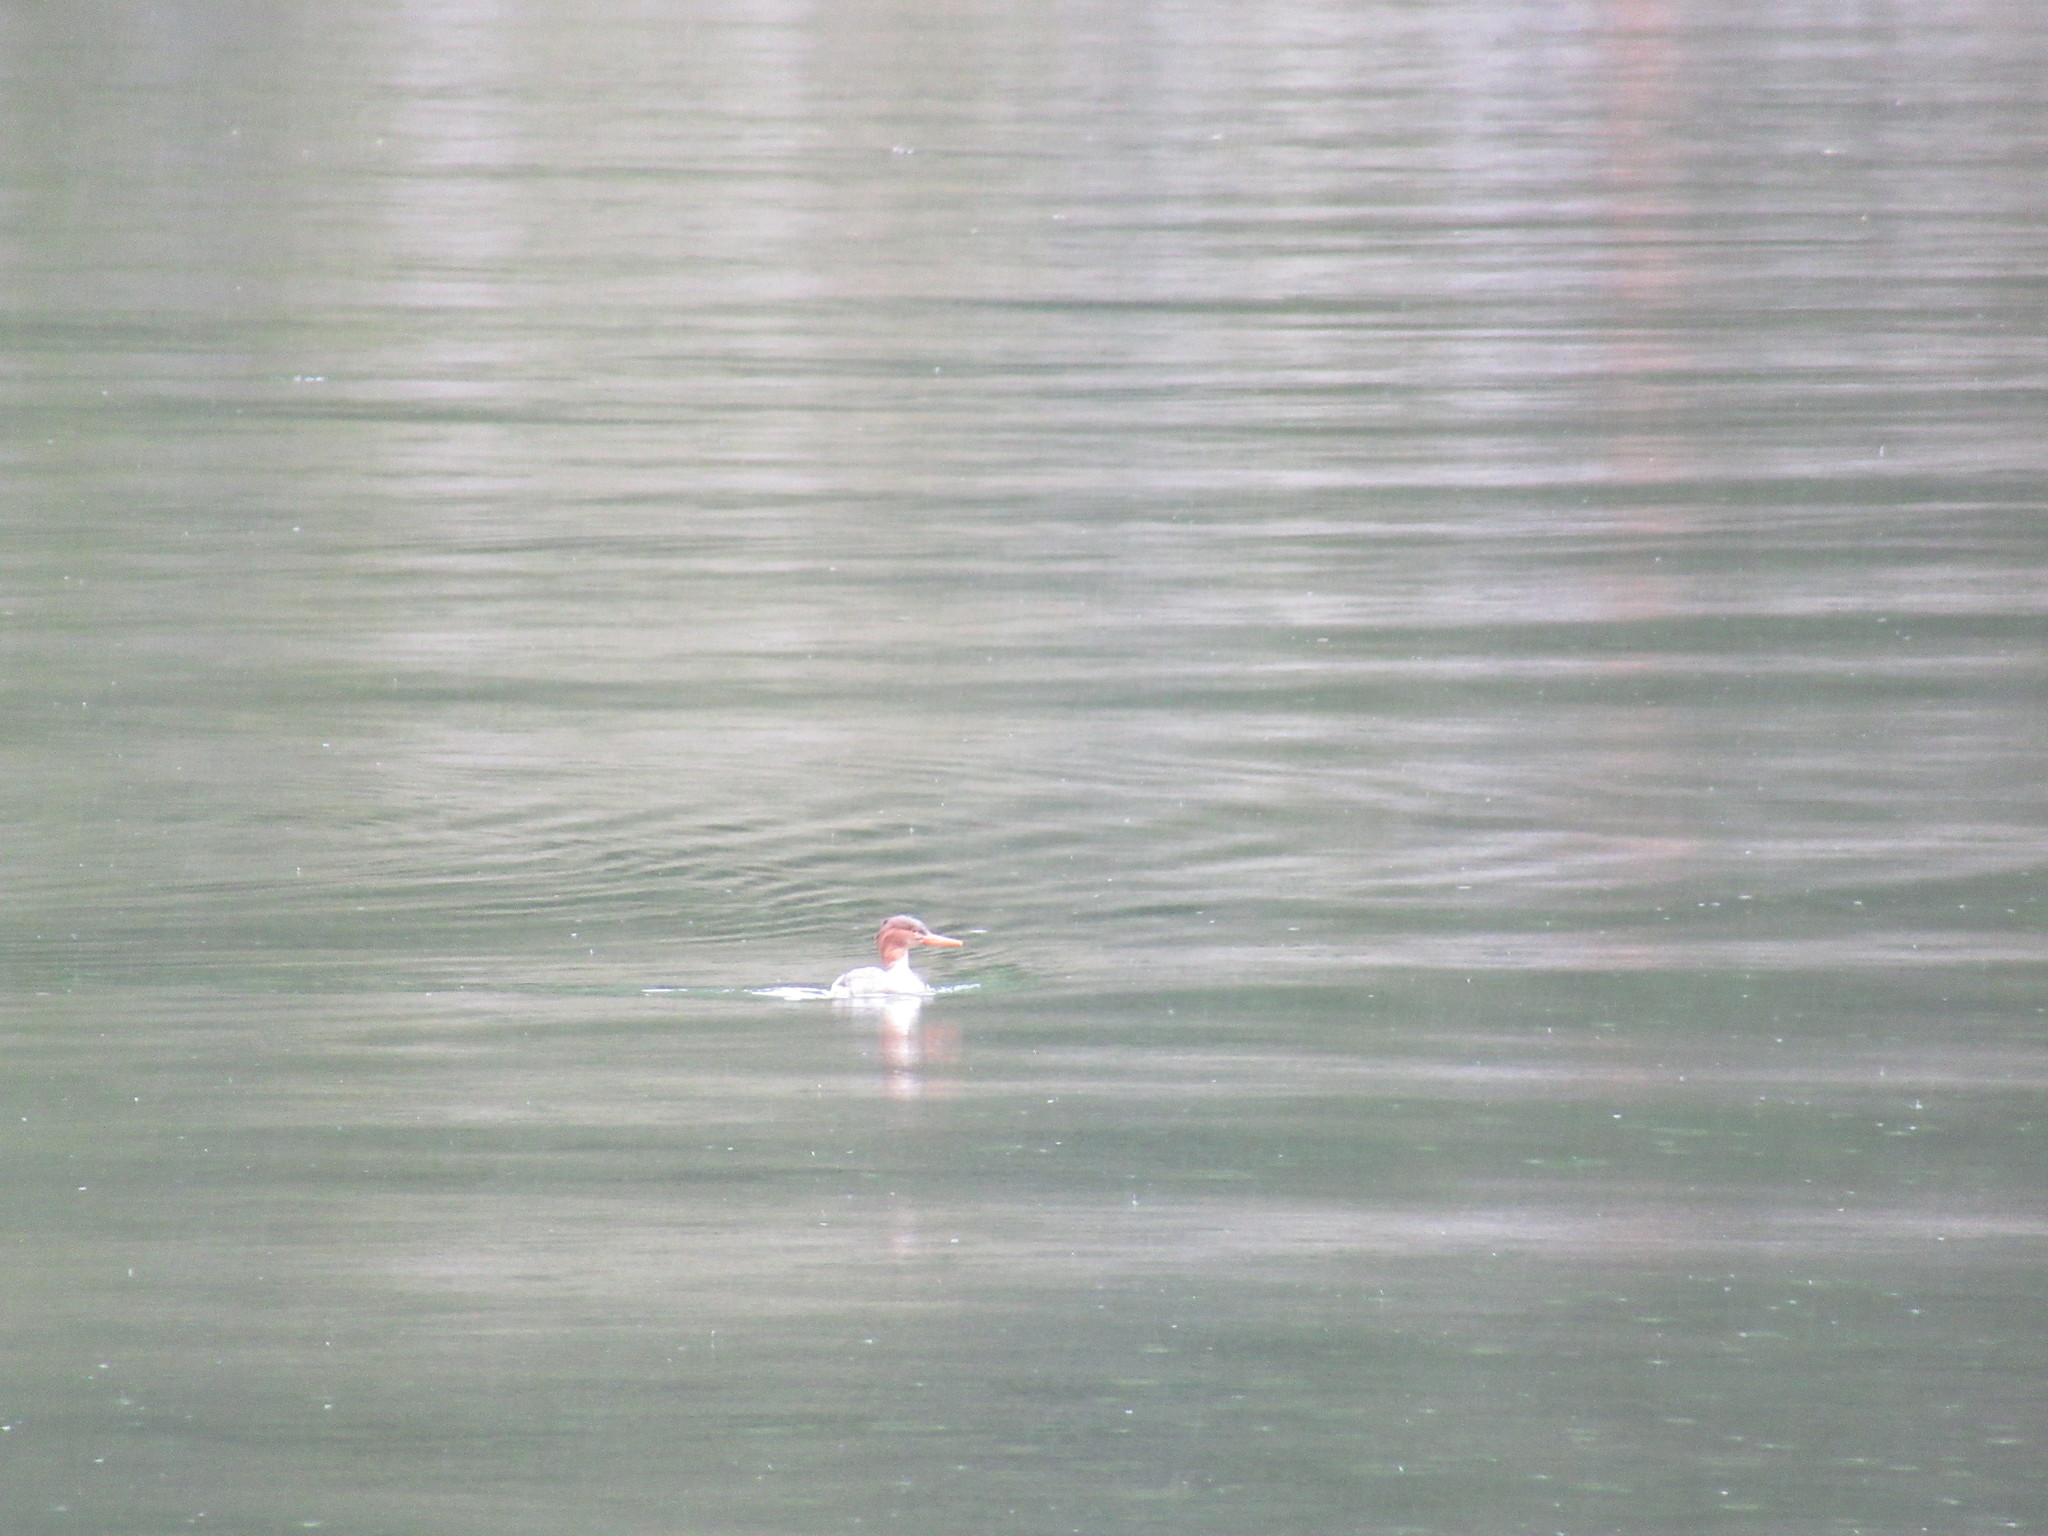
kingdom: Animalia
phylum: Chordata
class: Aves
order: Anseriformes
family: Anatidae
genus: Mergus
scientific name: Mergus serrator
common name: Red-breasted merganser
